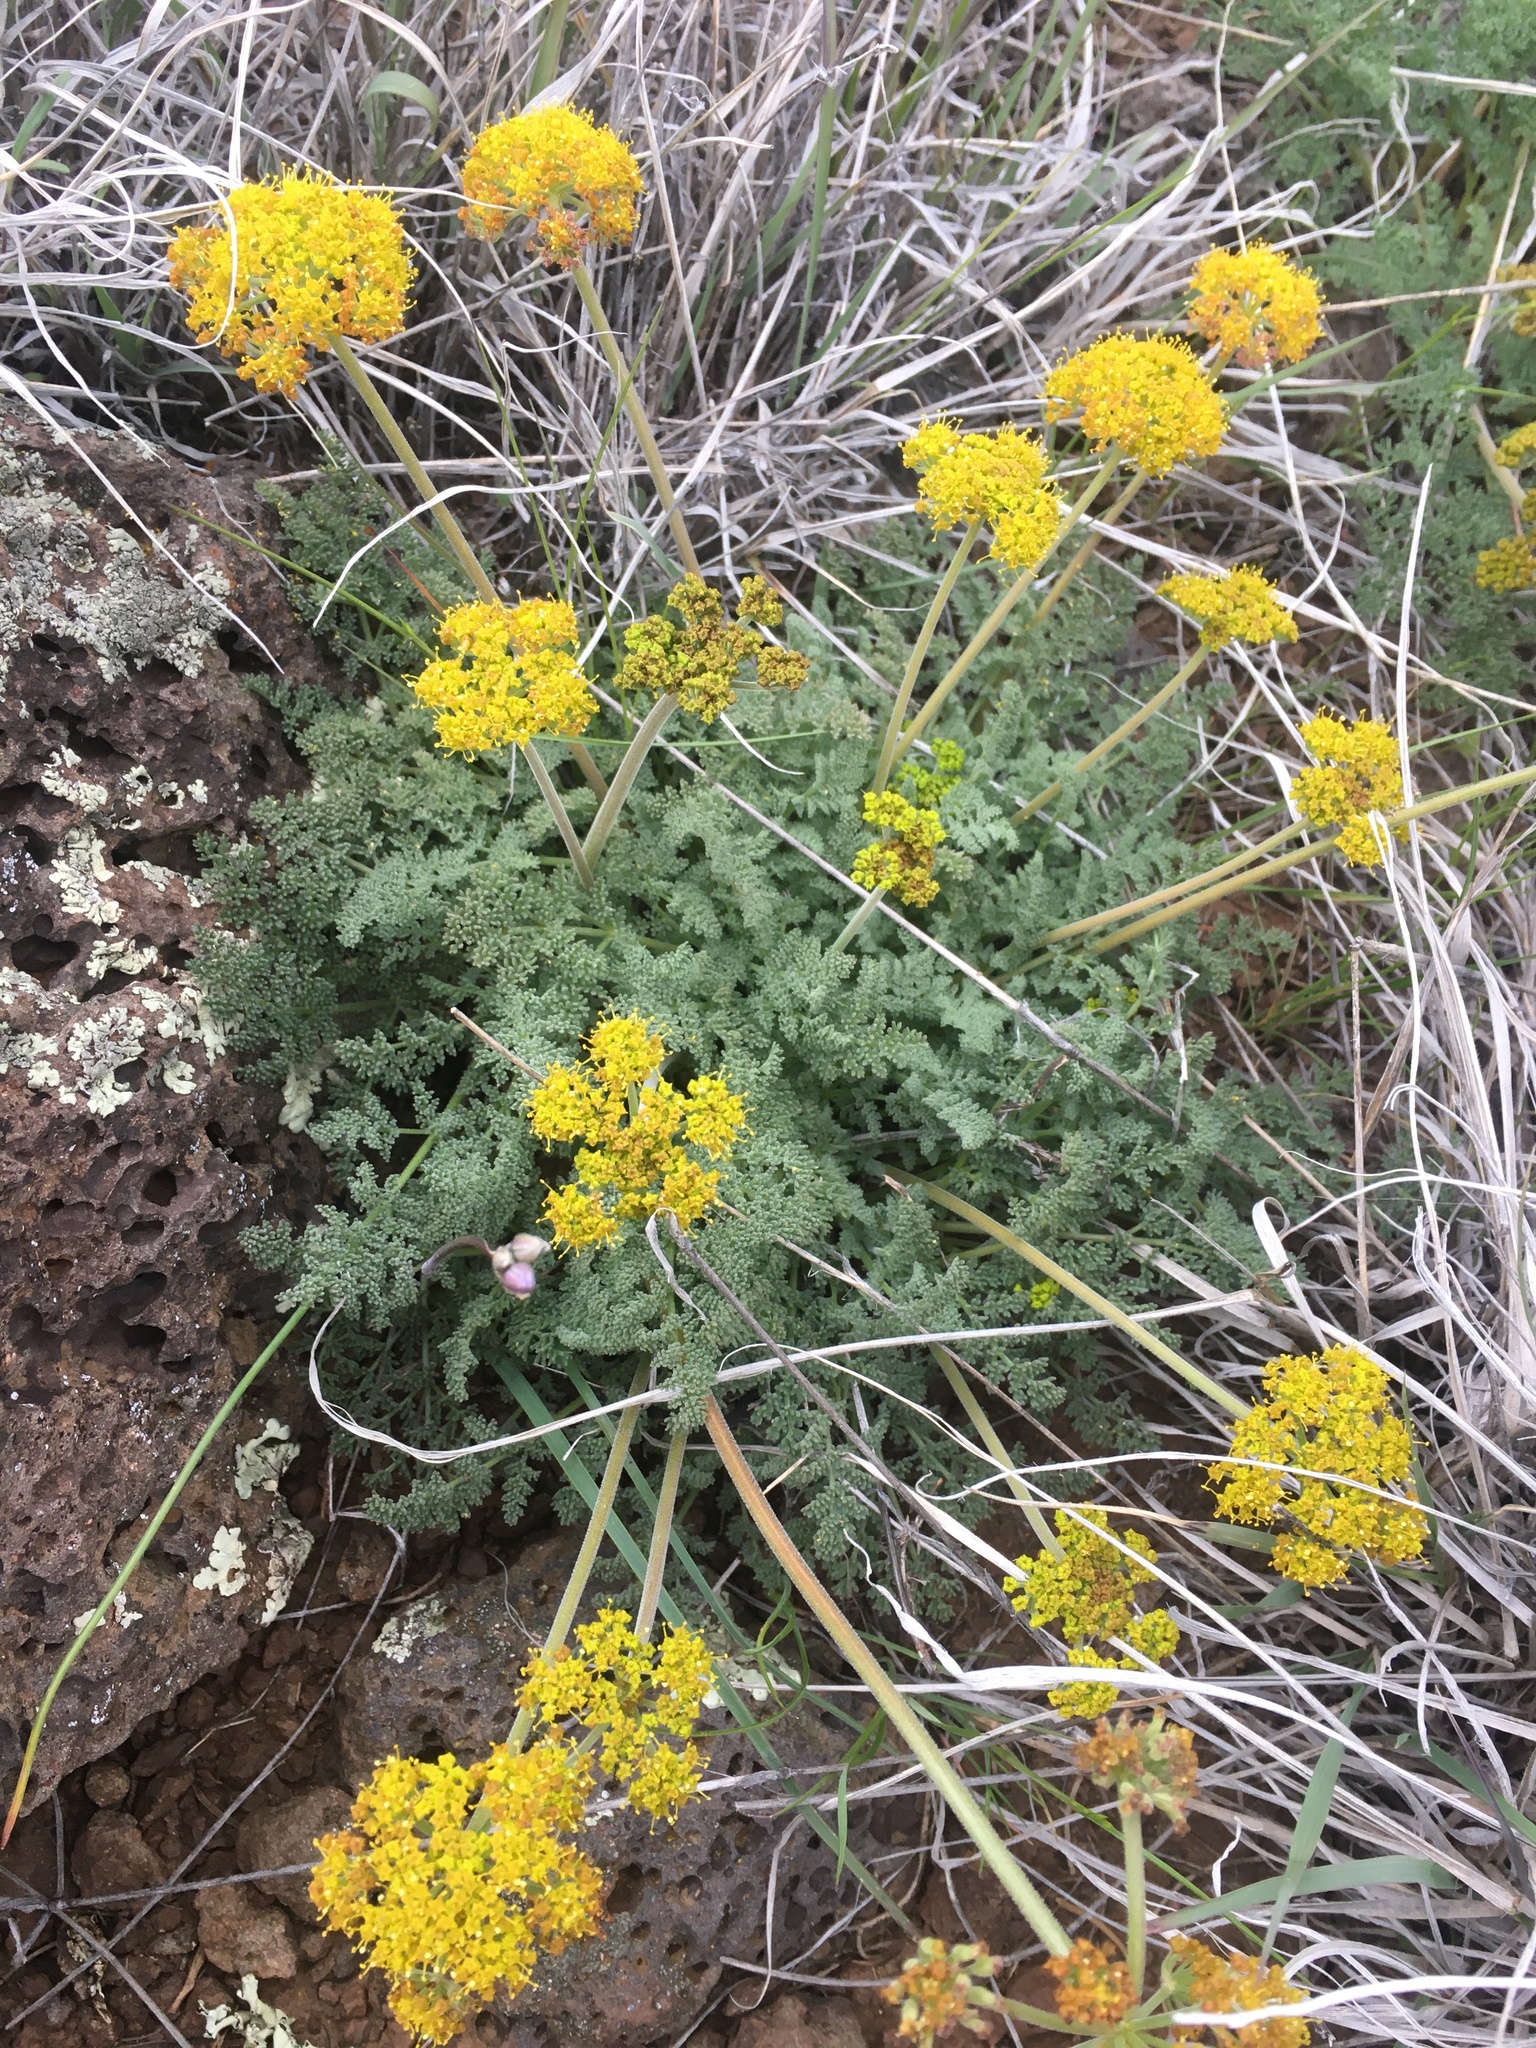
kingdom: Plantae
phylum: Tracheophyta
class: Magnoliopsida
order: Apiales
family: Apiaceae
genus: Lomatium
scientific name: Lomatium foeniculaceum
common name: Desert-parsley
